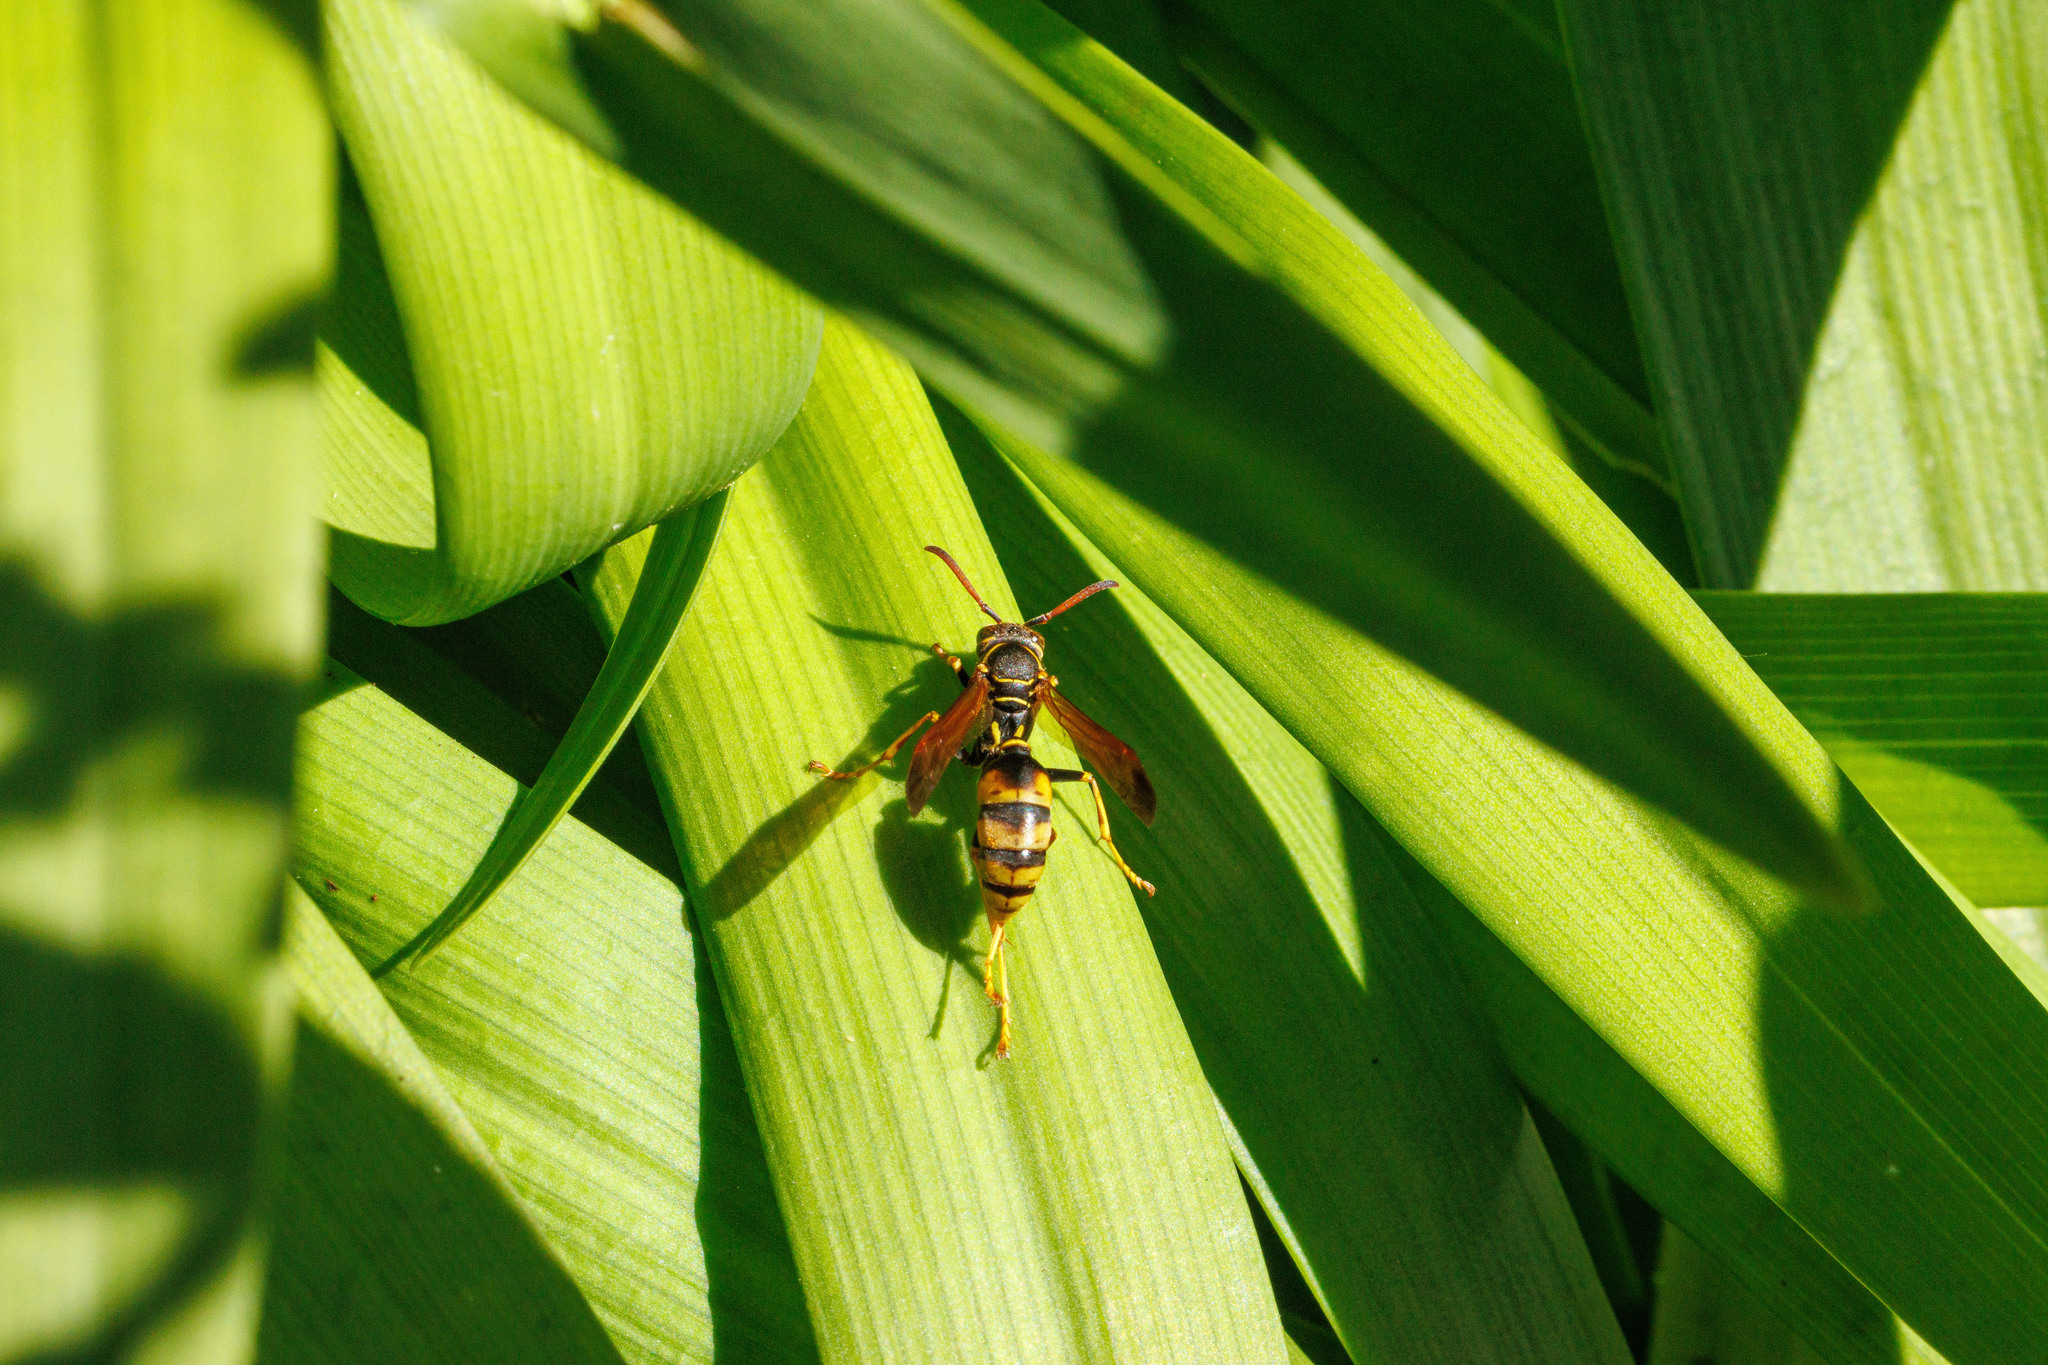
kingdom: Animalia
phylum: Arthropoda
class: Insecta
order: Hymenoptera
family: Vespidae
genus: Mischocyttarus
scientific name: Mischocyttarus flavitarsis
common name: Wasp
